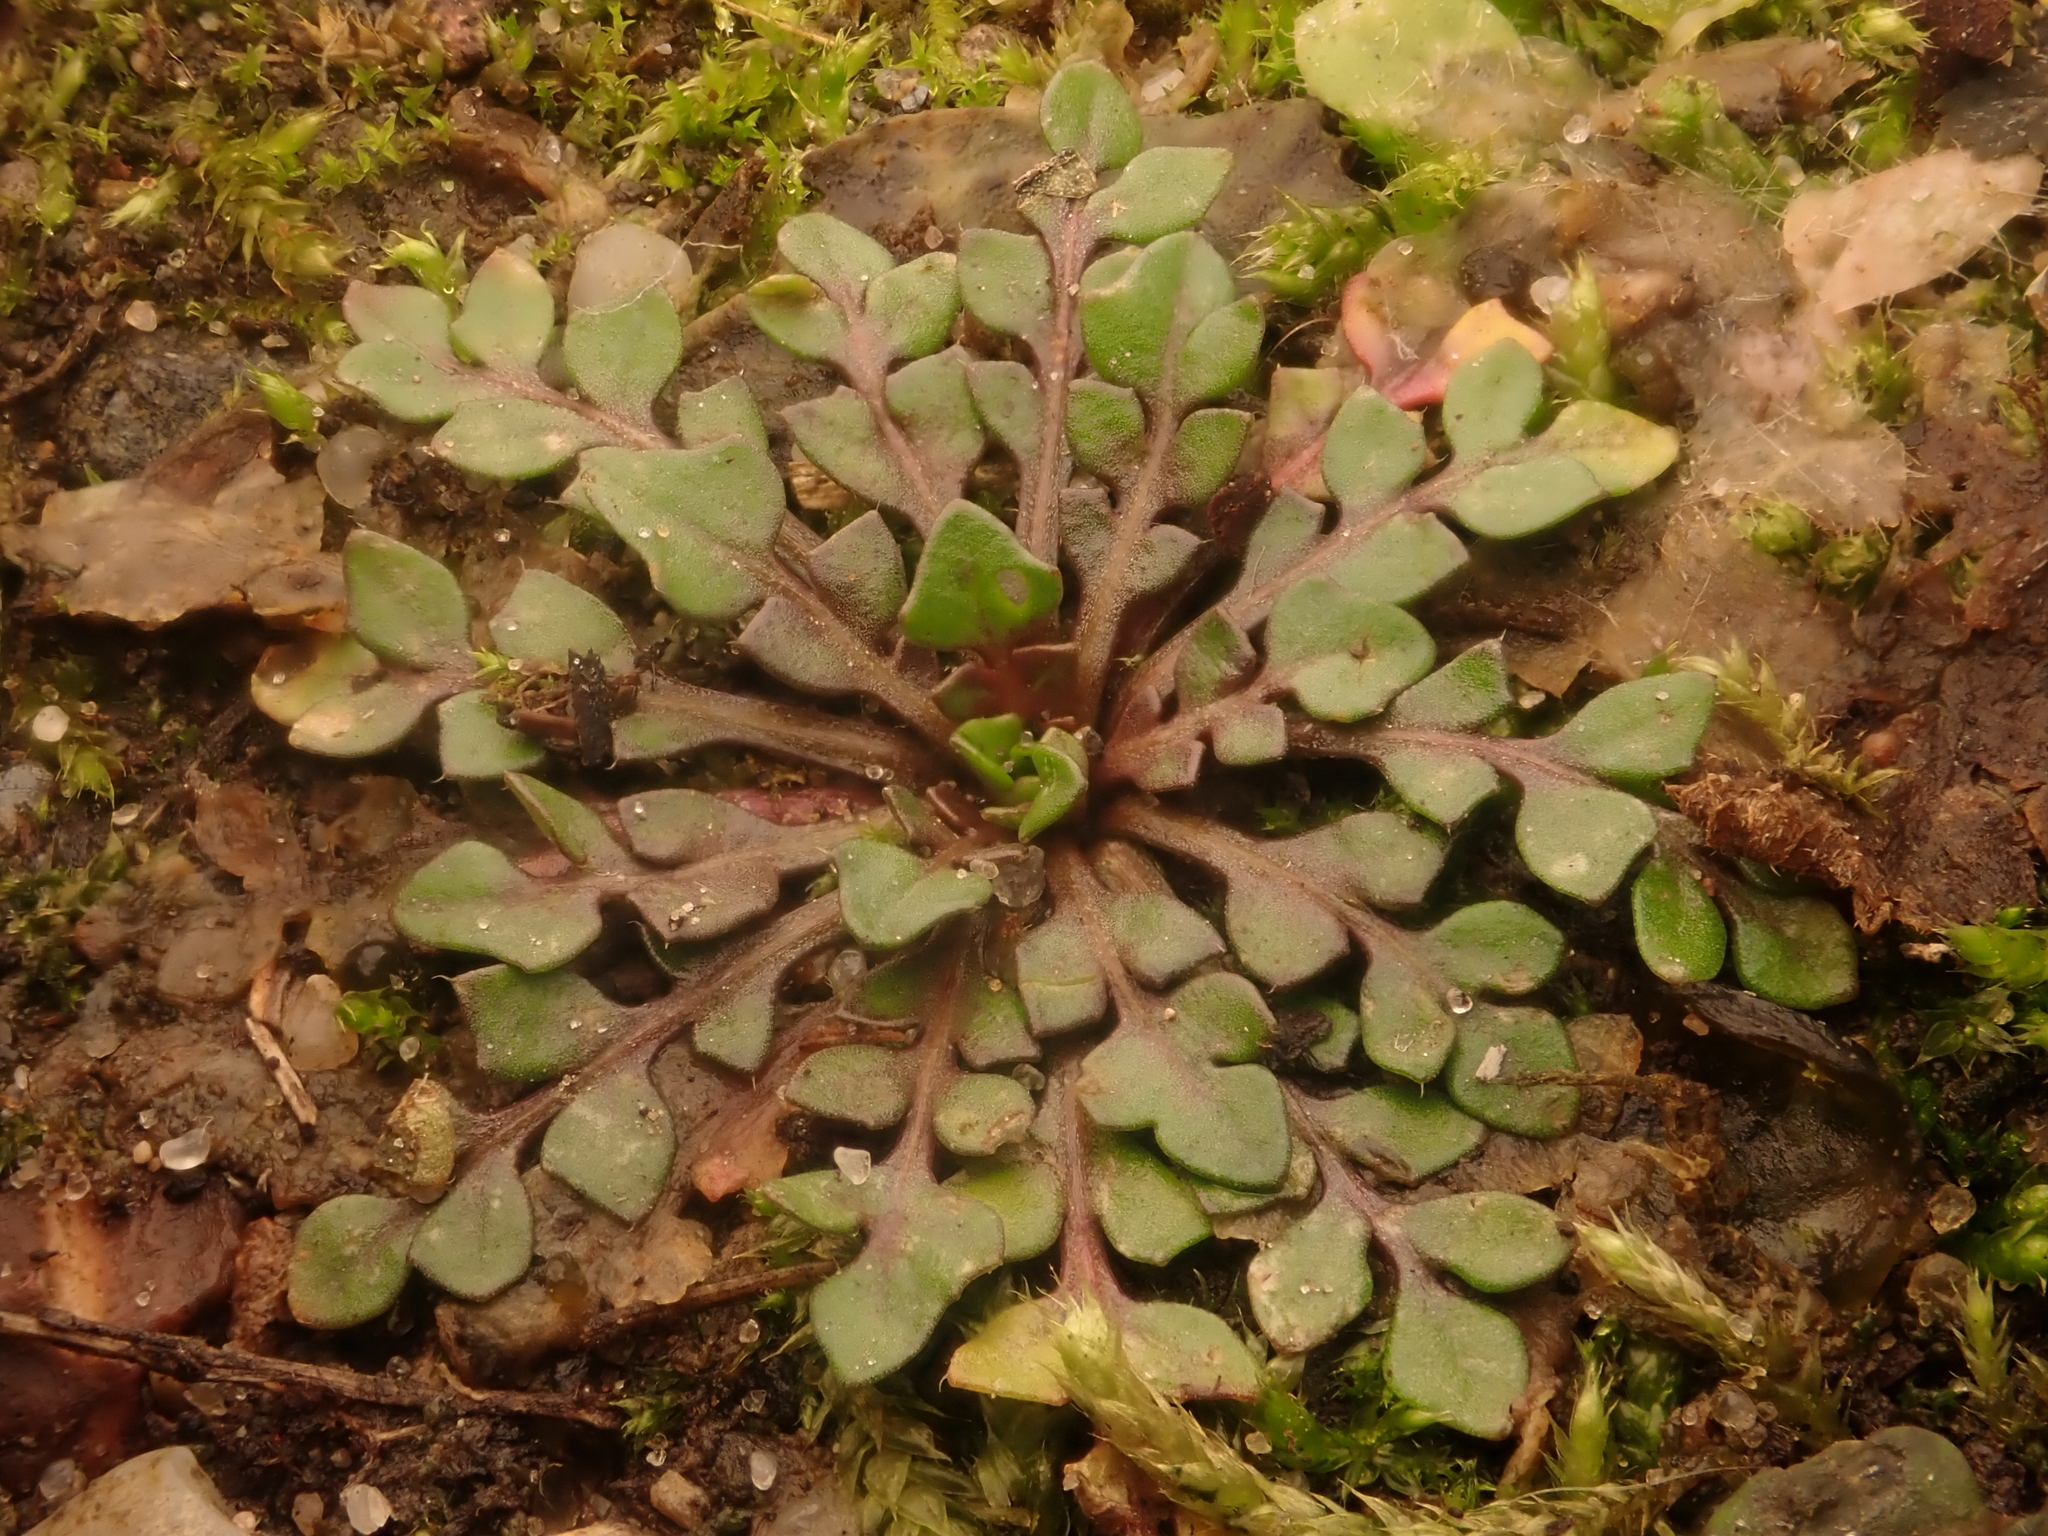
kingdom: Plantae
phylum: Tracheophyta
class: Magnoliopsida
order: Brassicales
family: Brassicaceae
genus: Capsella
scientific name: Capsella bursa-pastoris
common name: Shepherd's purse
